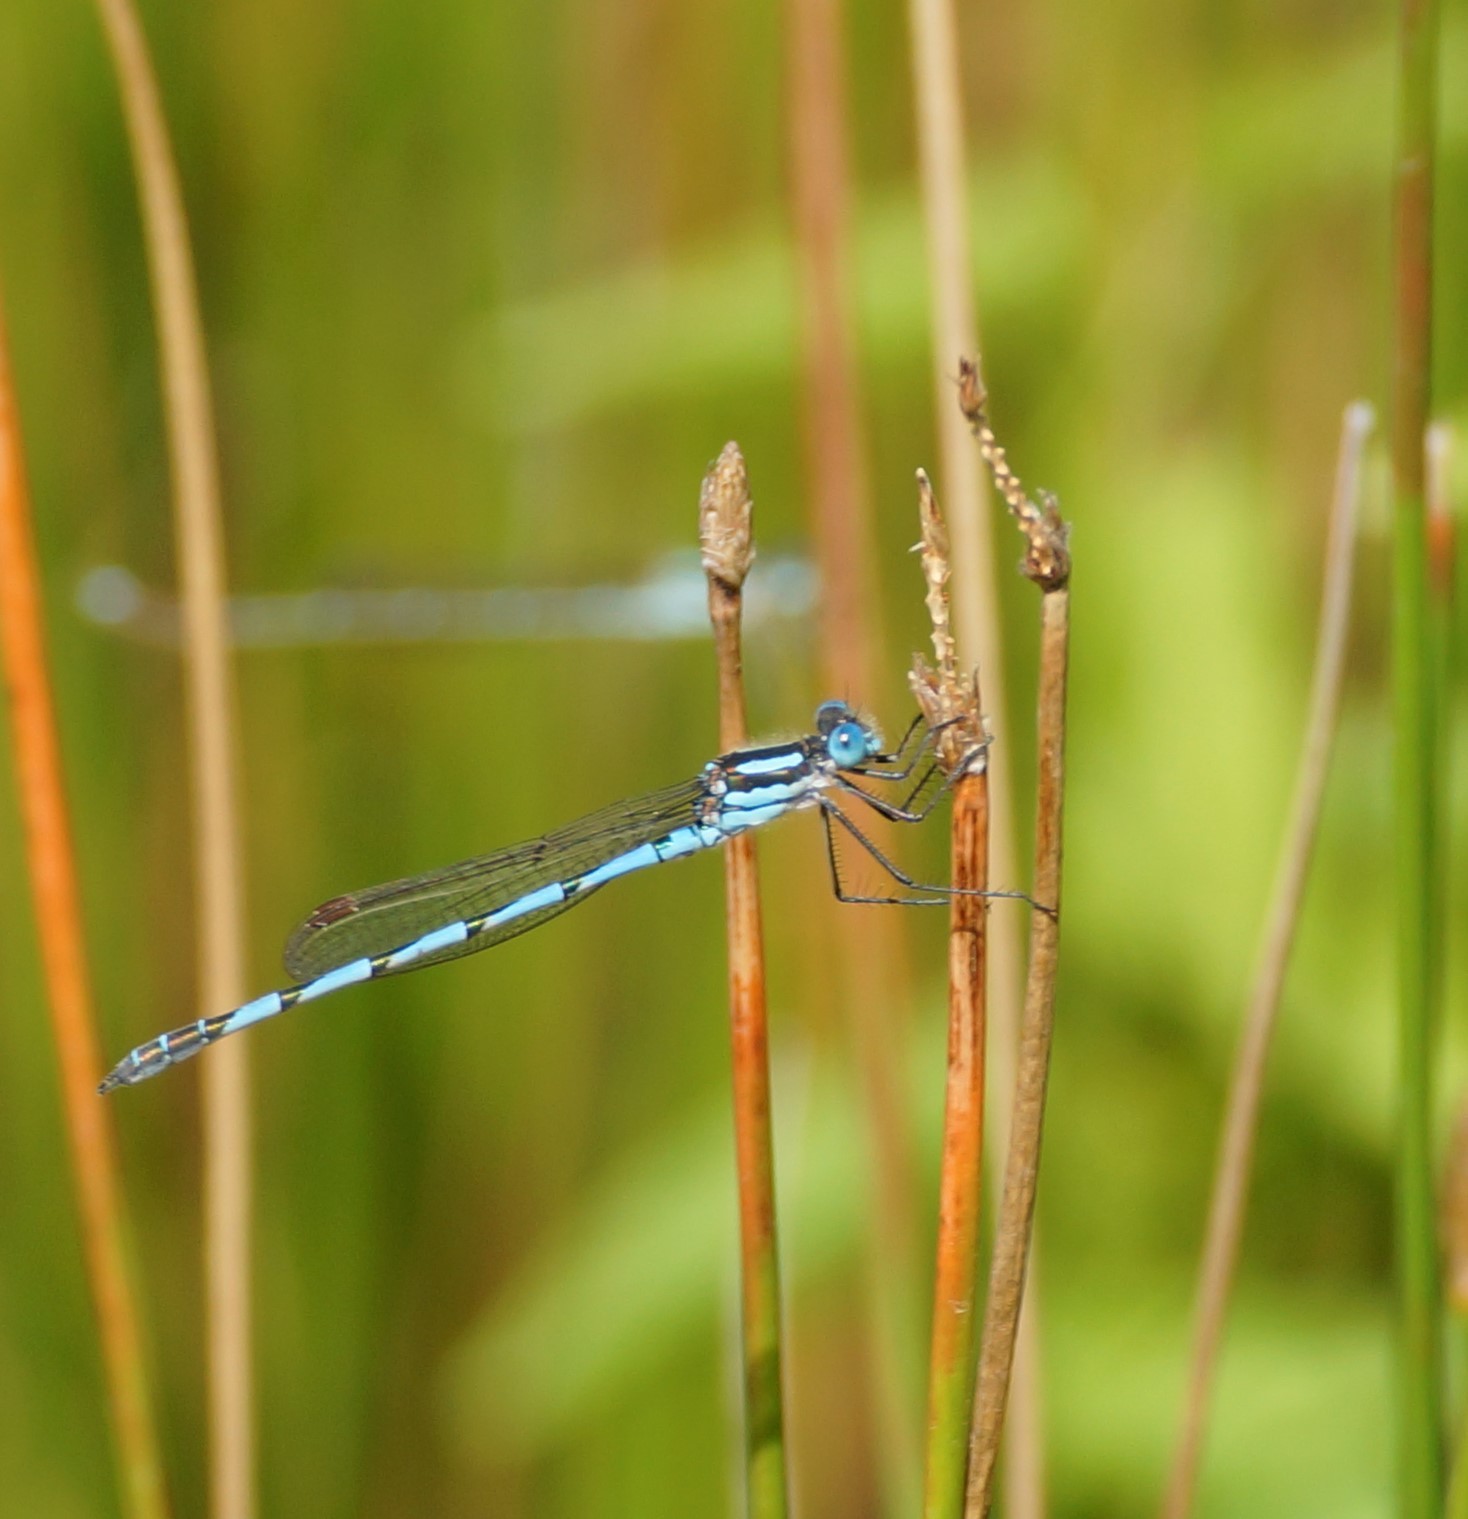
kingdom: Animalia
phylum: Arthropoda
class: Insecta
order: Odonata
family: Lestidae
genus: Austrolestes
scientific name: Austrolestes annulosus
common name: Blue ringtail
